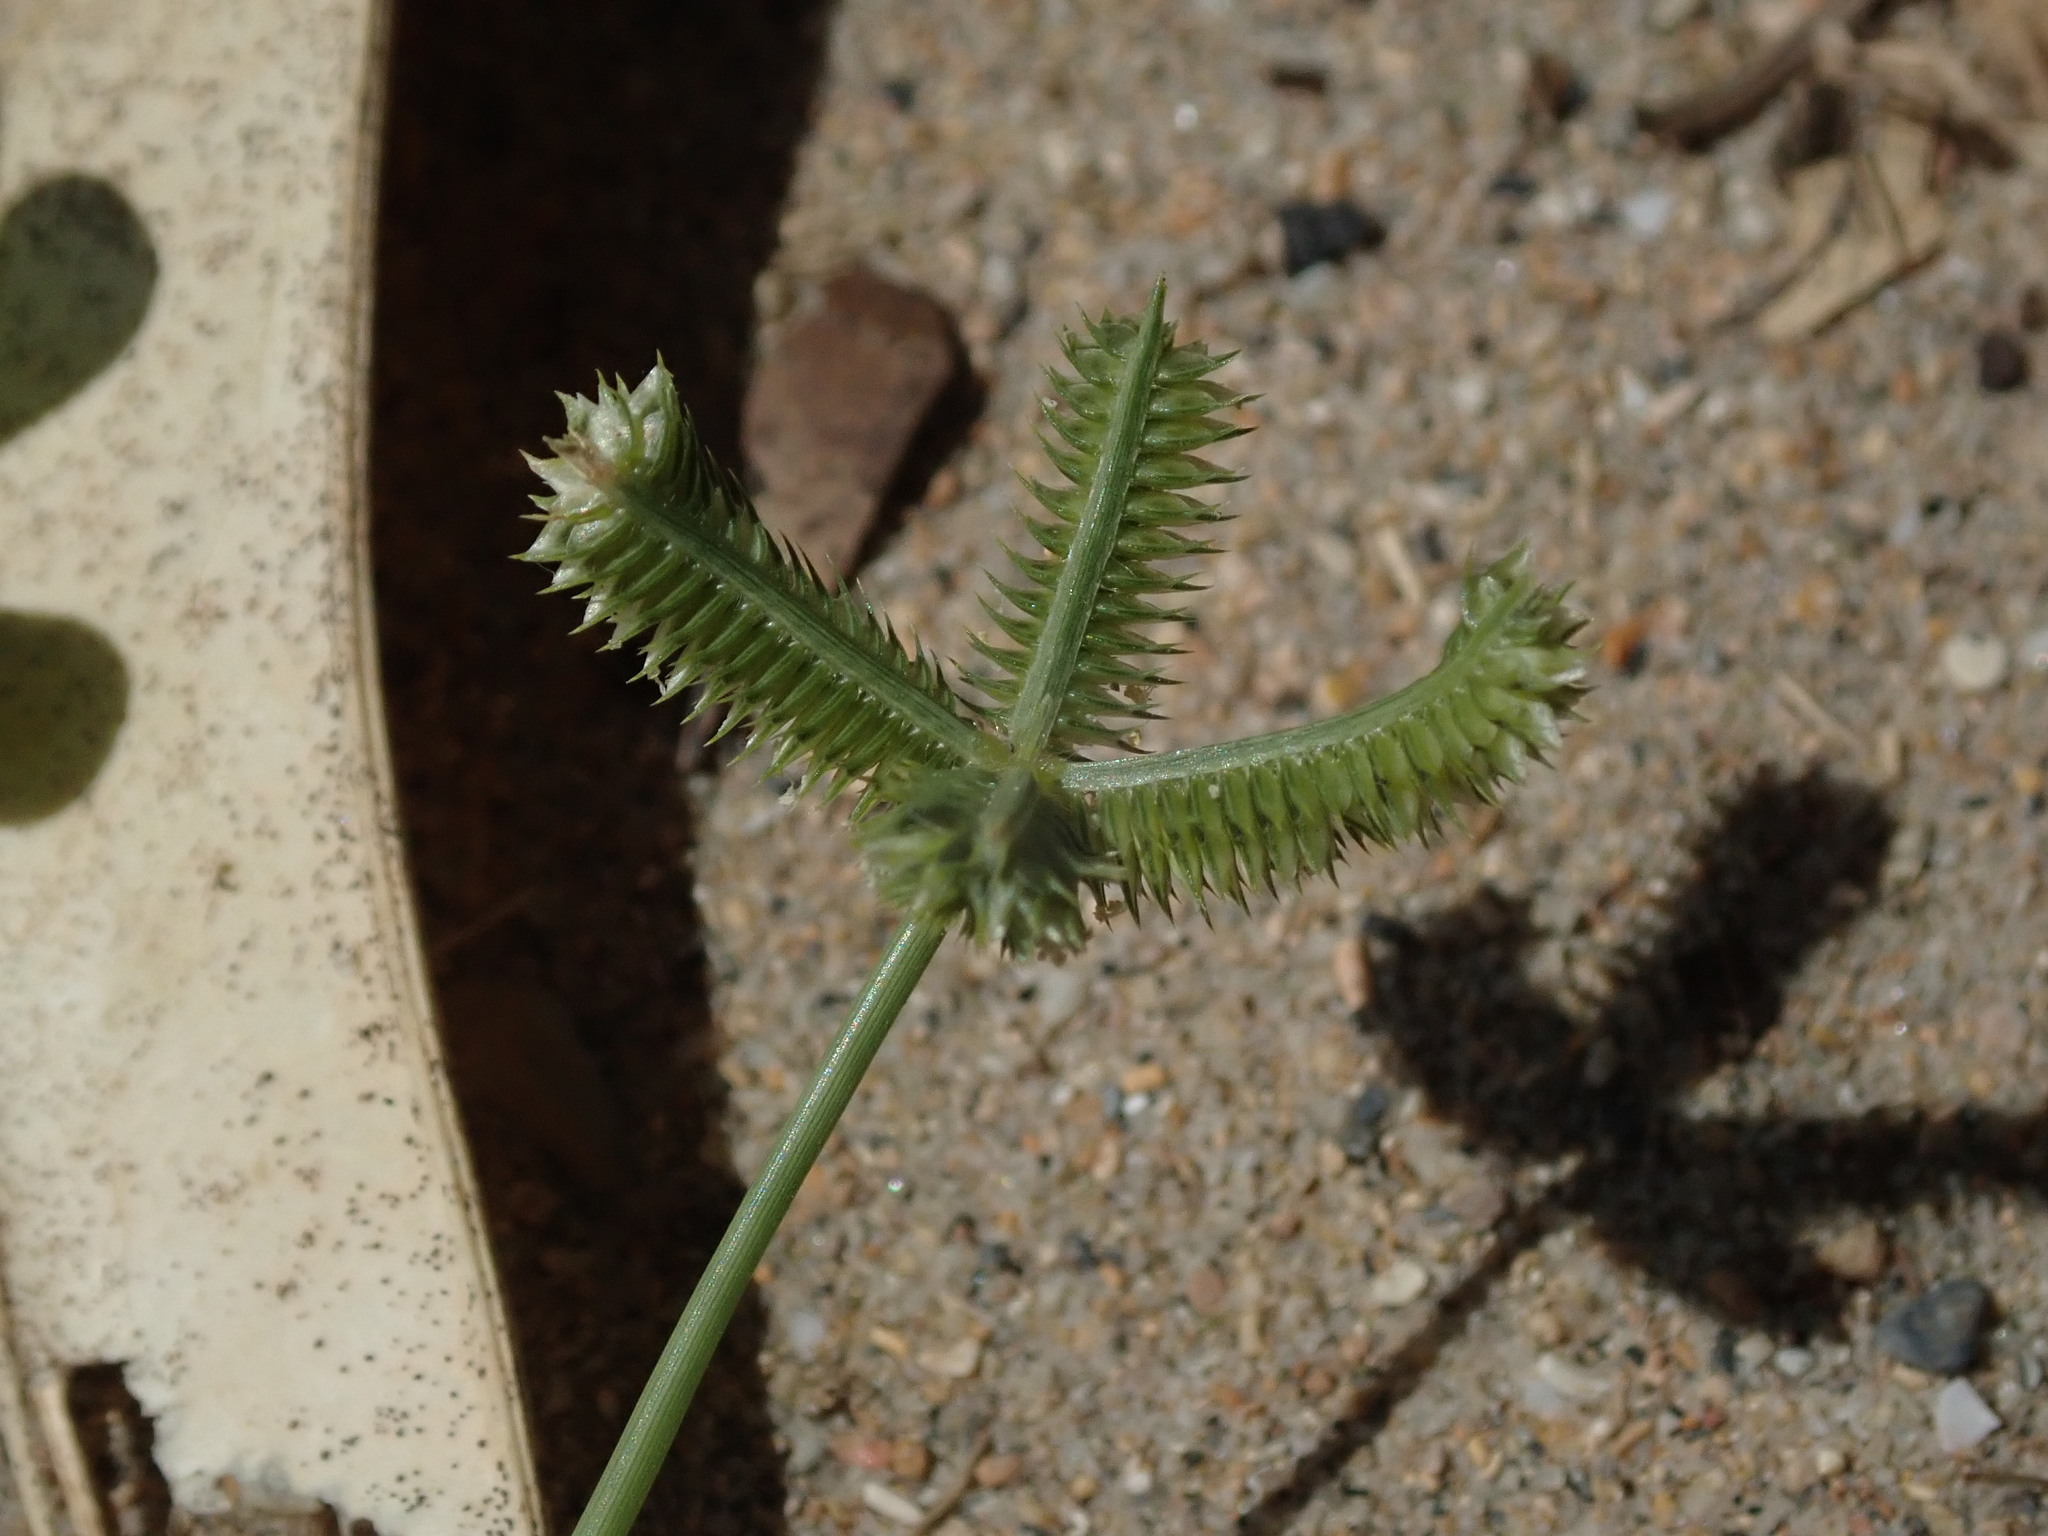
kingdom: Plantae
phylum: Tracheophyta
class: Liliopsida
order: Poales
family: Poaceae
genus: Dactyloctenium
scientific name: Dactyloctenium aegyptium
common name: Egyptian grass
